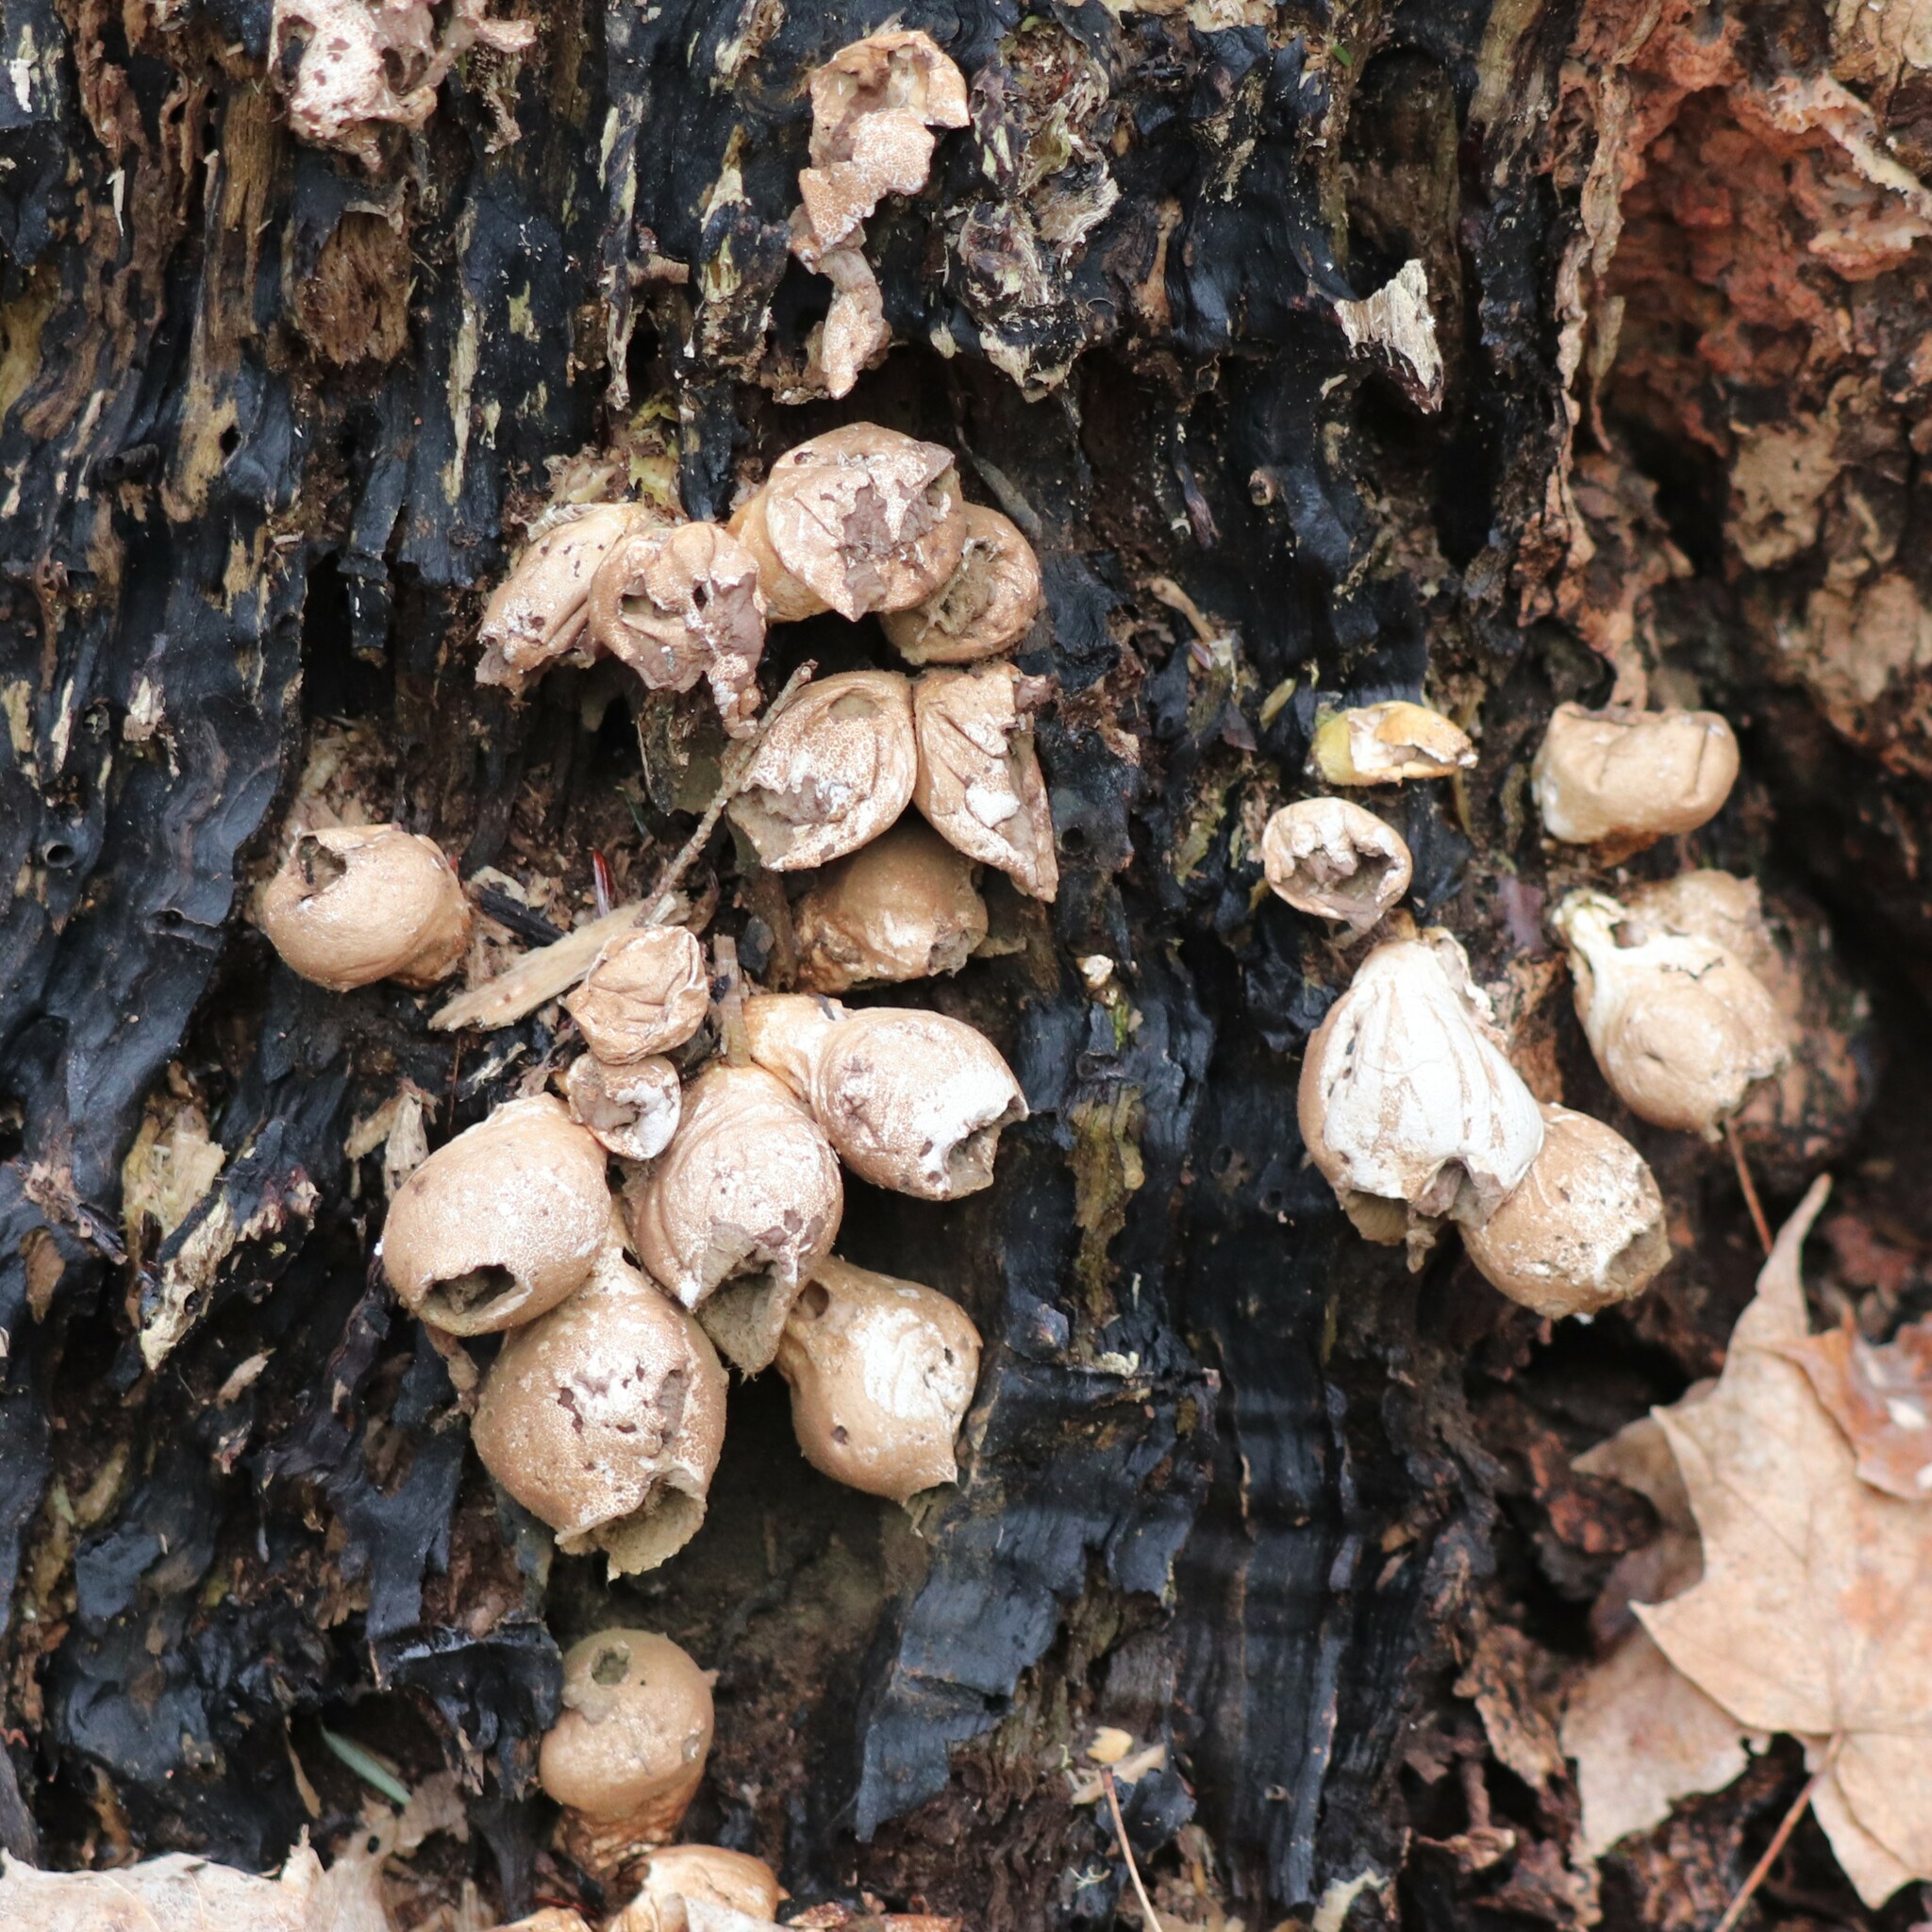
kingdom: Fungi
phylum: Basidiomycota
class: Agaricomycetes
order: Agaricales
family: Lycoperdaceae
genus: Apioperdon
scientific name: Apioperdon pyriforme
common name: Pear-shaped puffball
